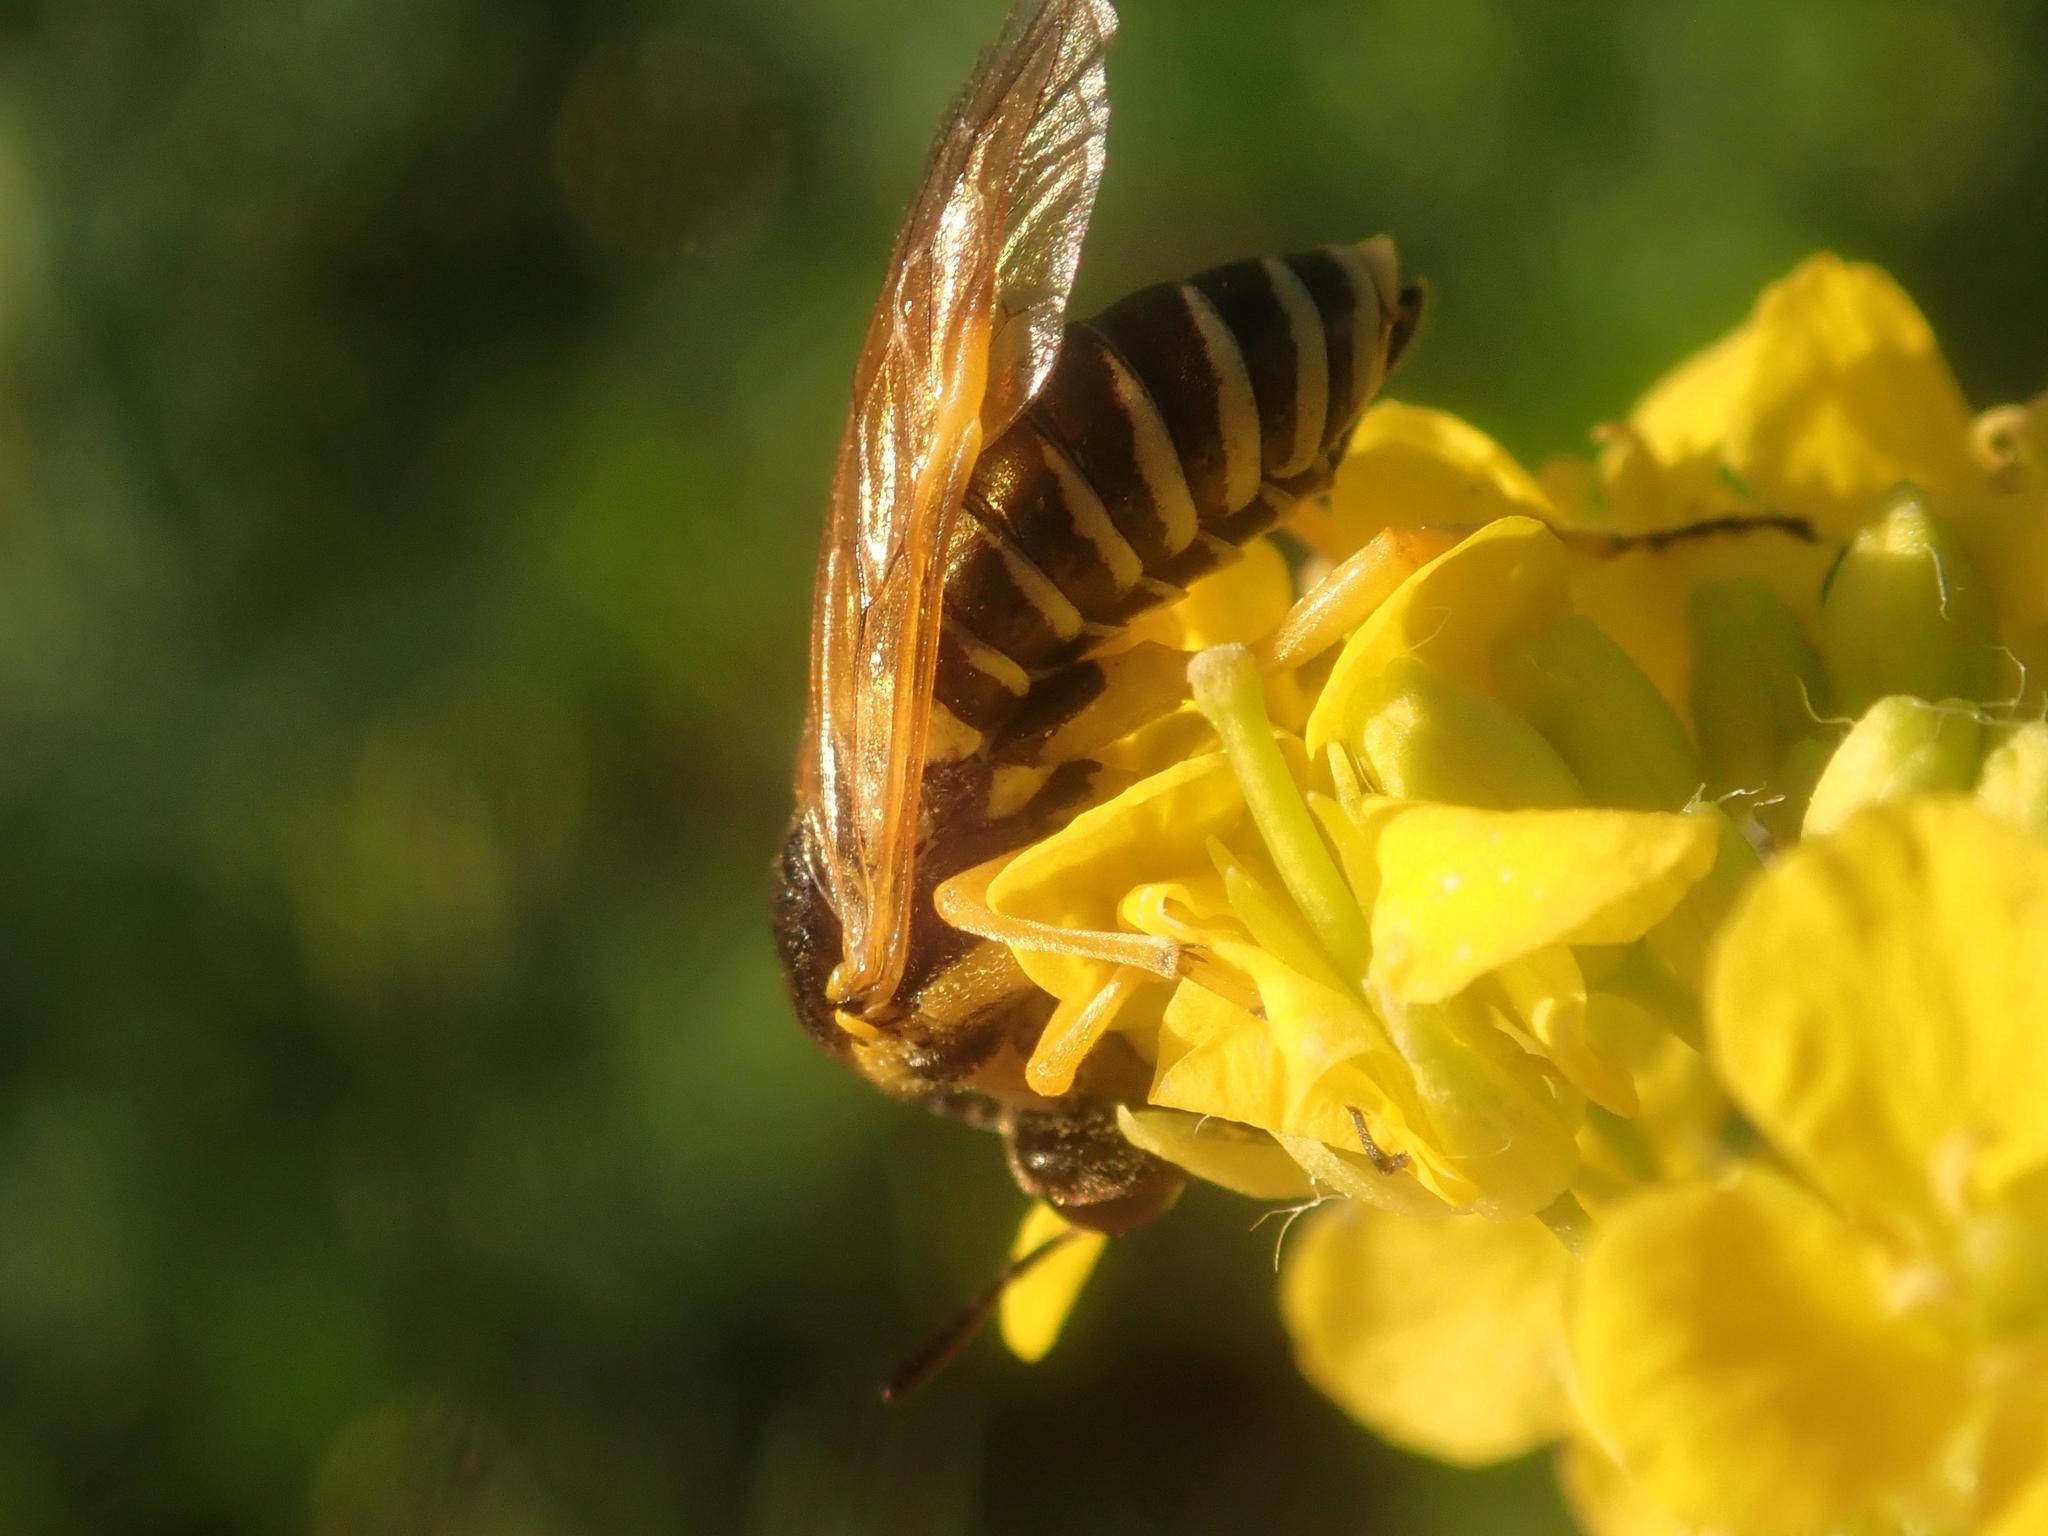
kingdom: Animalia
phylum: Arthropoda
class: Insecta
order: Hymenoptera
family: Tenthredinidae
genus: Tenthredo
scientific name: Tenthredo flaveola
